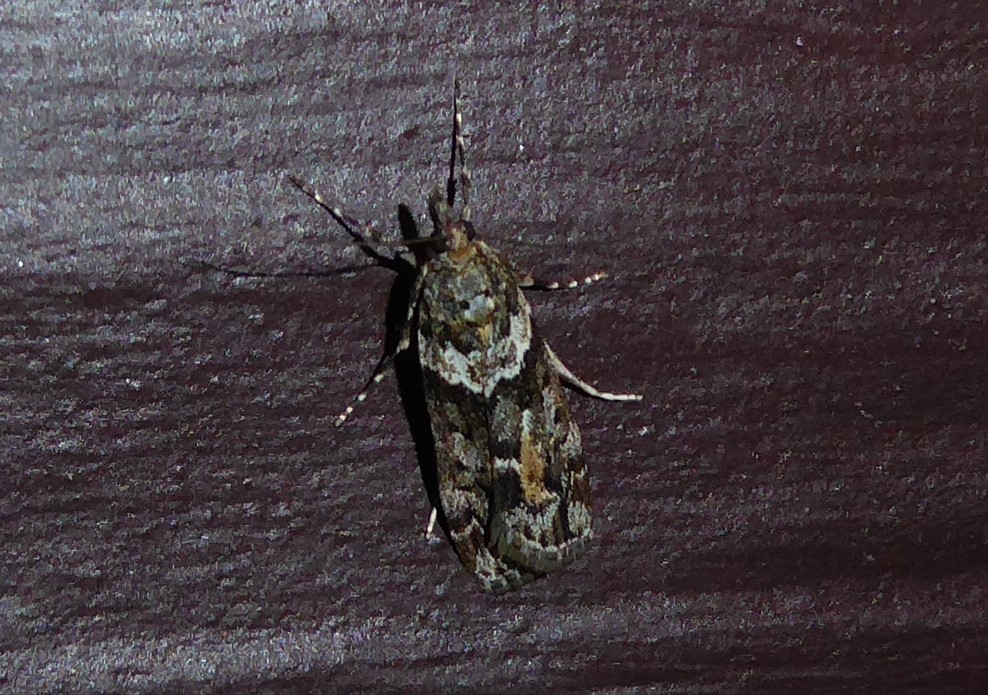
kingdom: Animalia
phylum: Arthropoda
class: Insecta
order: Lepidoptera
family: Crambidae
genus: Eudonia
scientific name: Eudonia submarginalis
